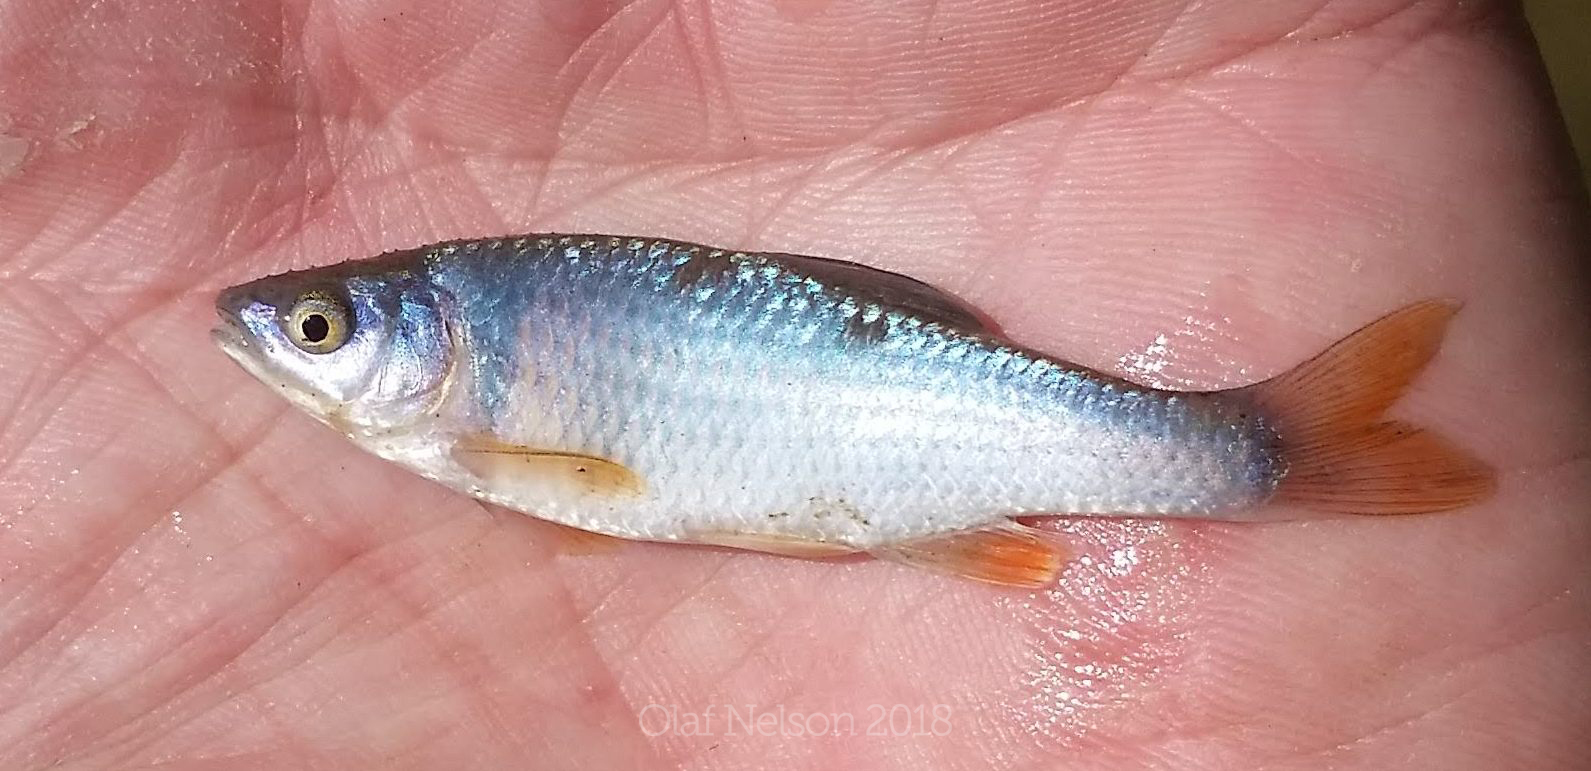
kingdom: Animalia
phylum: Chordata
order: Cypriniformes
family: Cyprinidae
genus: Cyprinella
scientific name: Cyprinella lutrensis
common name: Red shiner
